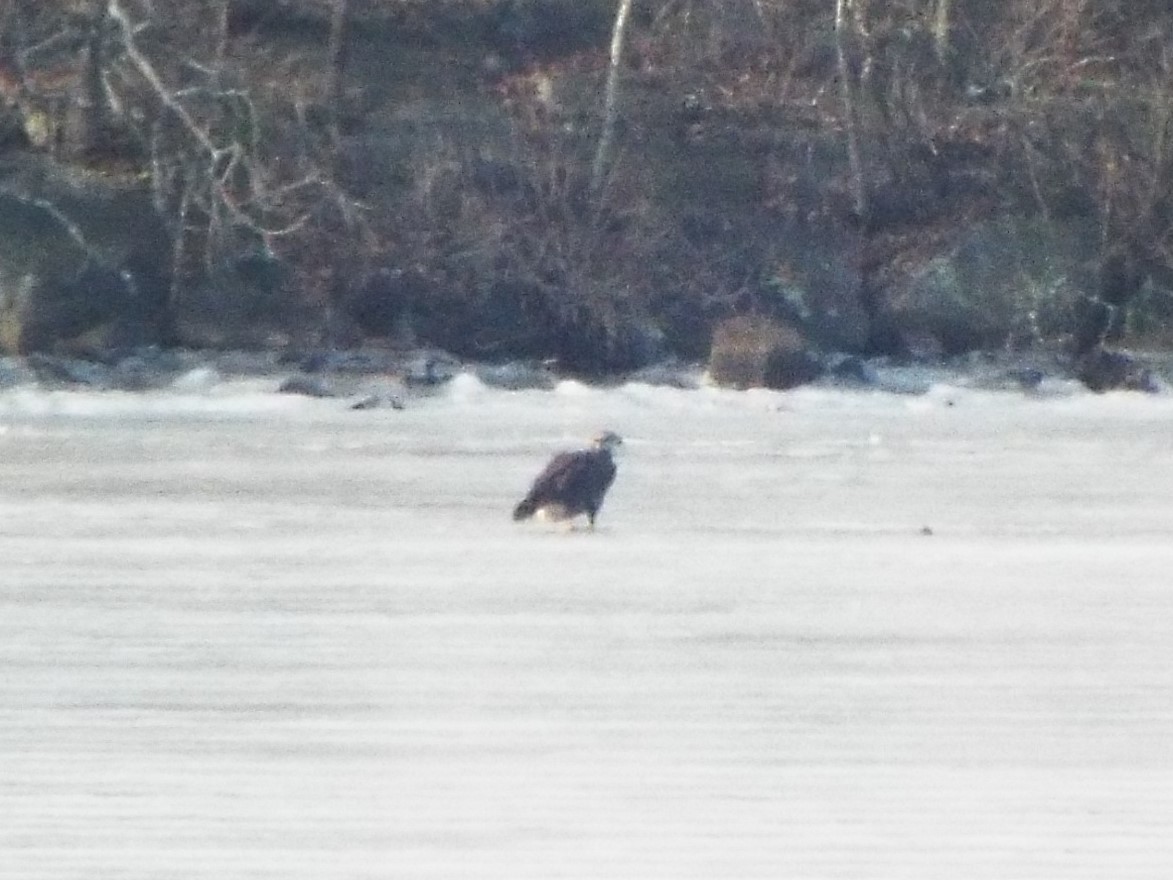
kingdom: Animalia
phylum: Chordata
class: Aves
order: Accipitriformes
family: Accipitridae
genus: Haliaeetus
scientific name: Haliaeetus leucocephalus
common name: Bald eagle
